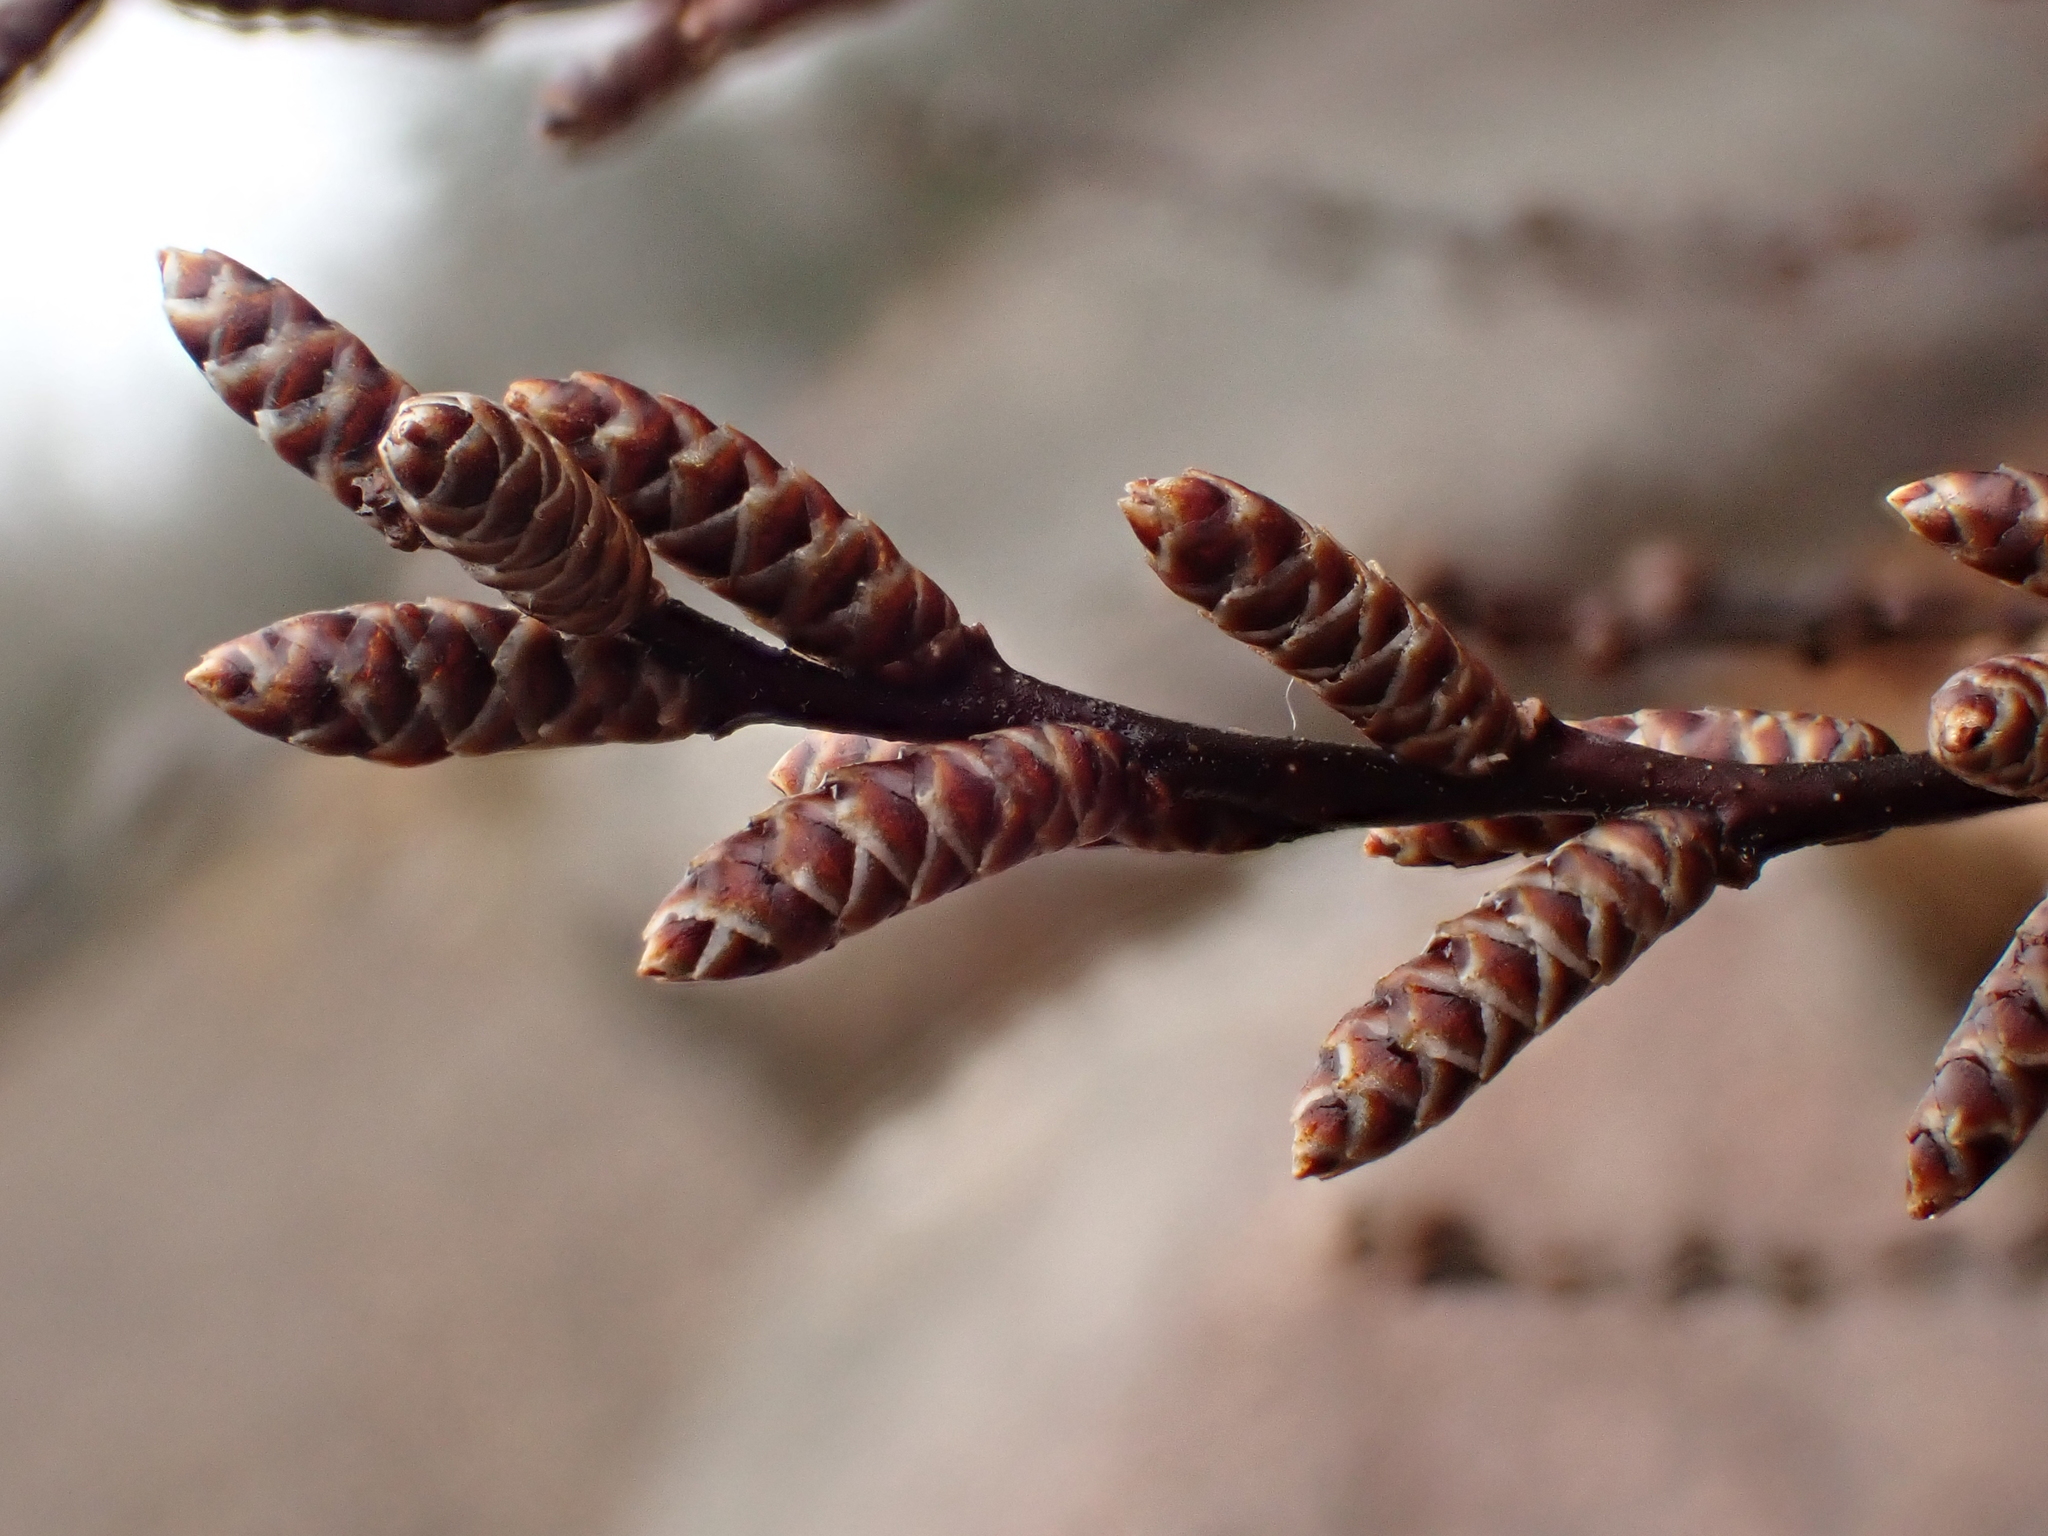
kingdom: Plantae
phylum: Tracheophyta
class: Magnoliopsida
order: Fagales
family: Myricaceae
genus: Myrica
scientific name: Myrica gale
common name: Sweet gale
